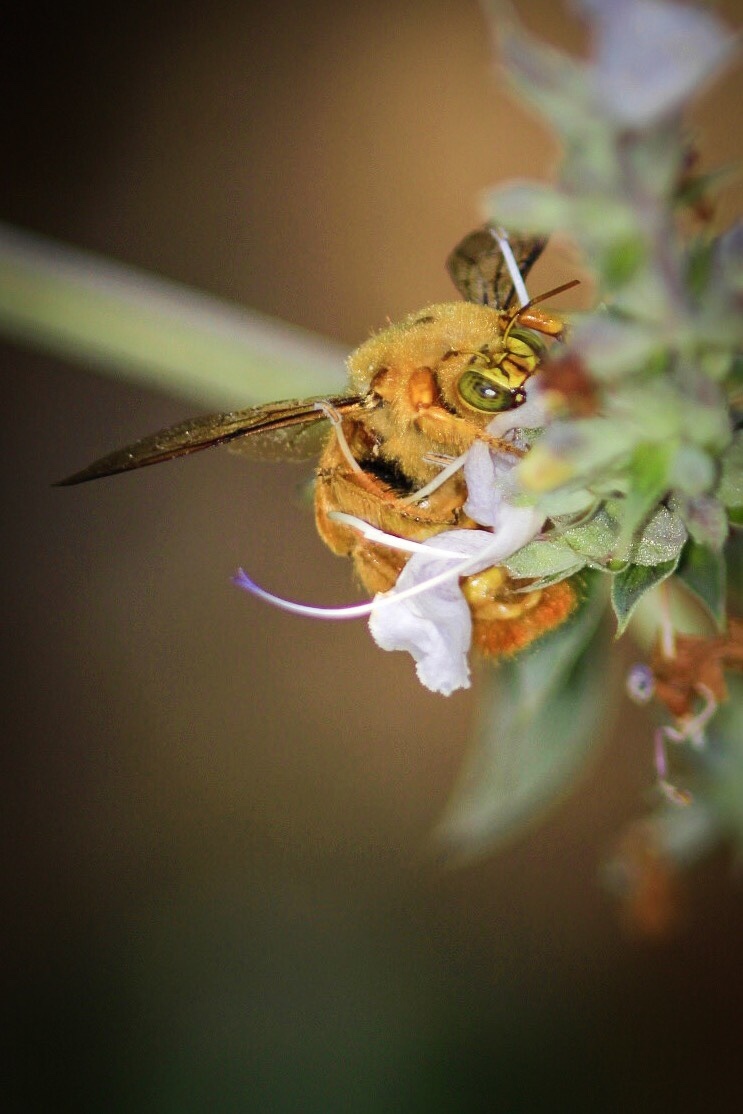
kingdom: Animalia
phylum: Arthropoda
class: Insecta
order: Hymenoptera
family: Apidae
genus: Xylocopa
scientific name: Xylocopa sonorina
